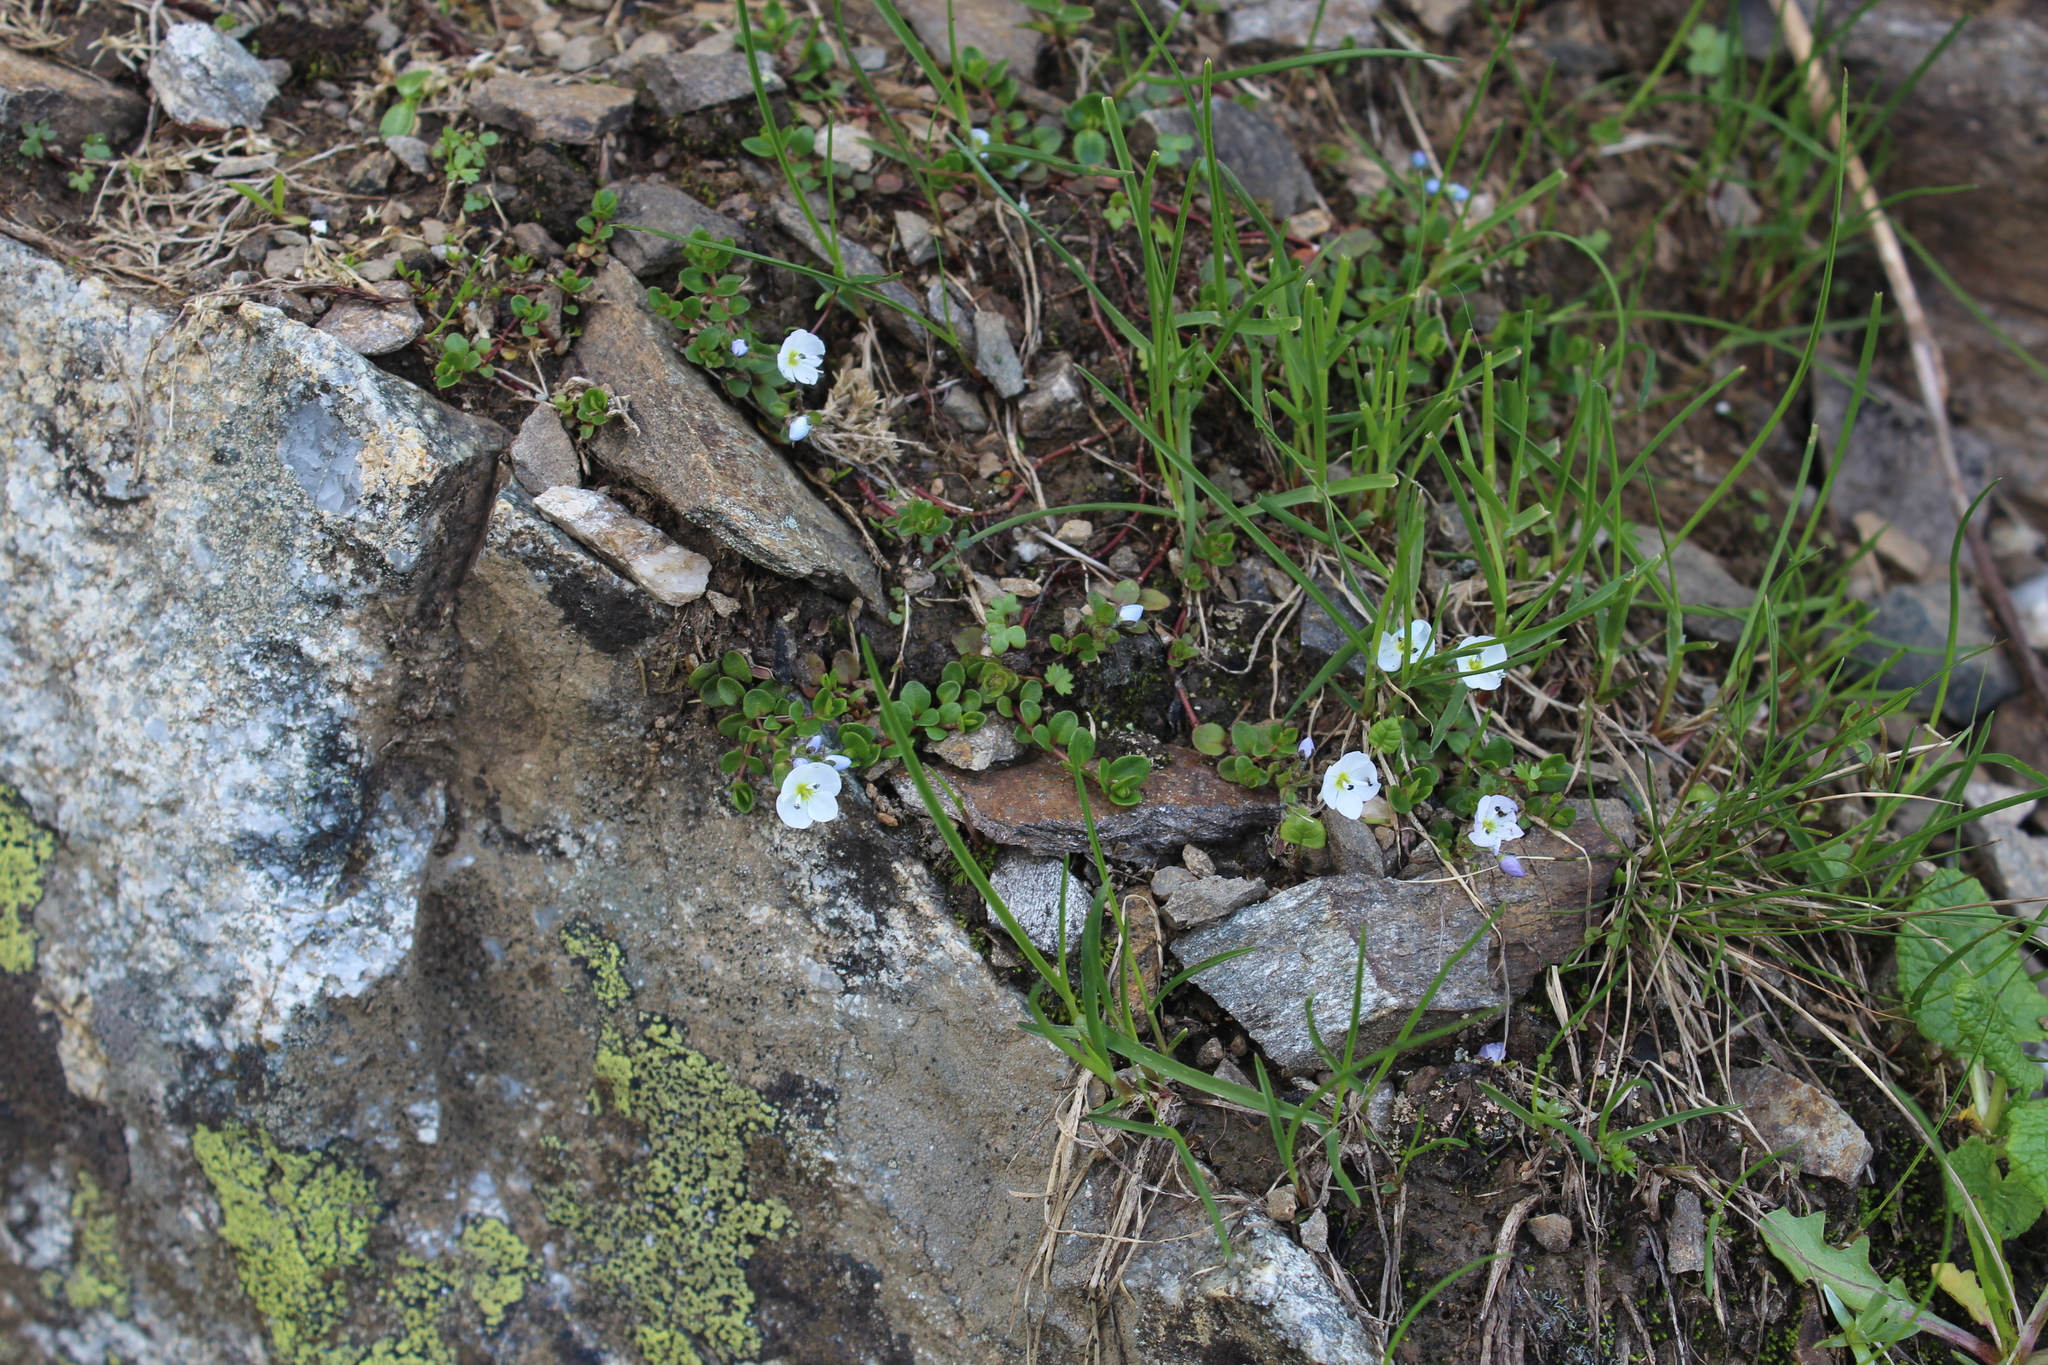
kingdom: Plantae
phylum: Tracheophyta
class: Magnoliopsida
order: Lamiales
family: Plantaginaceae
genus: Veronica
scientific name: Veronica telephiifolia
